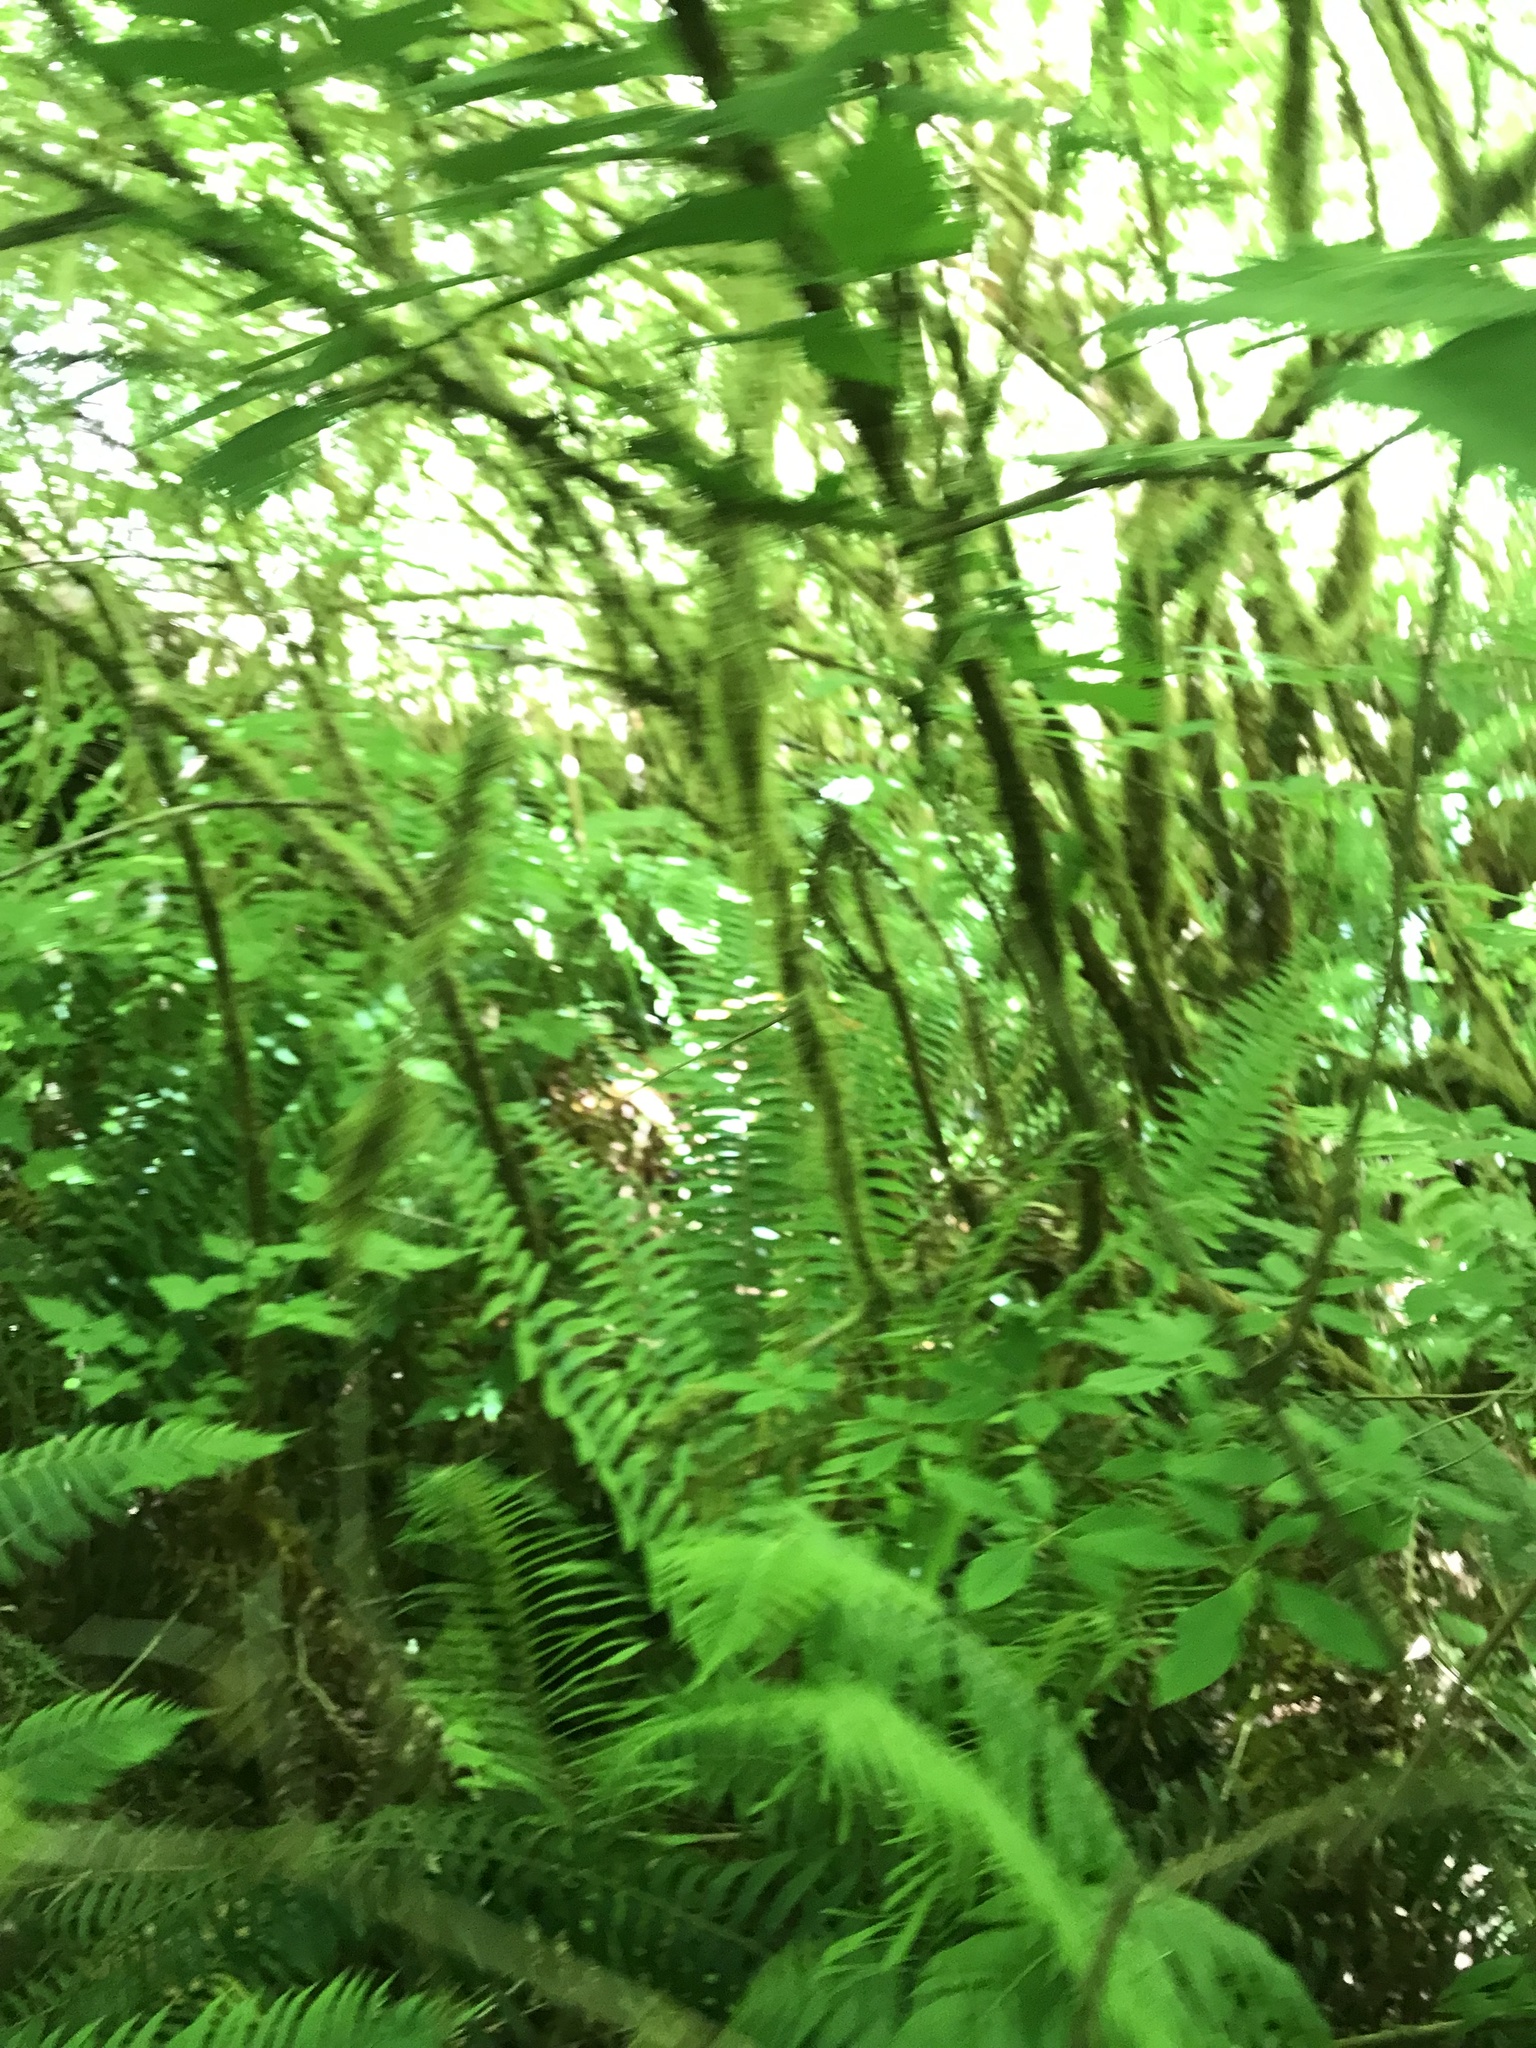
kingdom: Plantae
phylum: Tracheophyta
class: Magnoliopsida
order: Rosales
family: Rosaceae
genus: Rubus
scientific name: Rubus spectabilis
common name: Salmonberry
